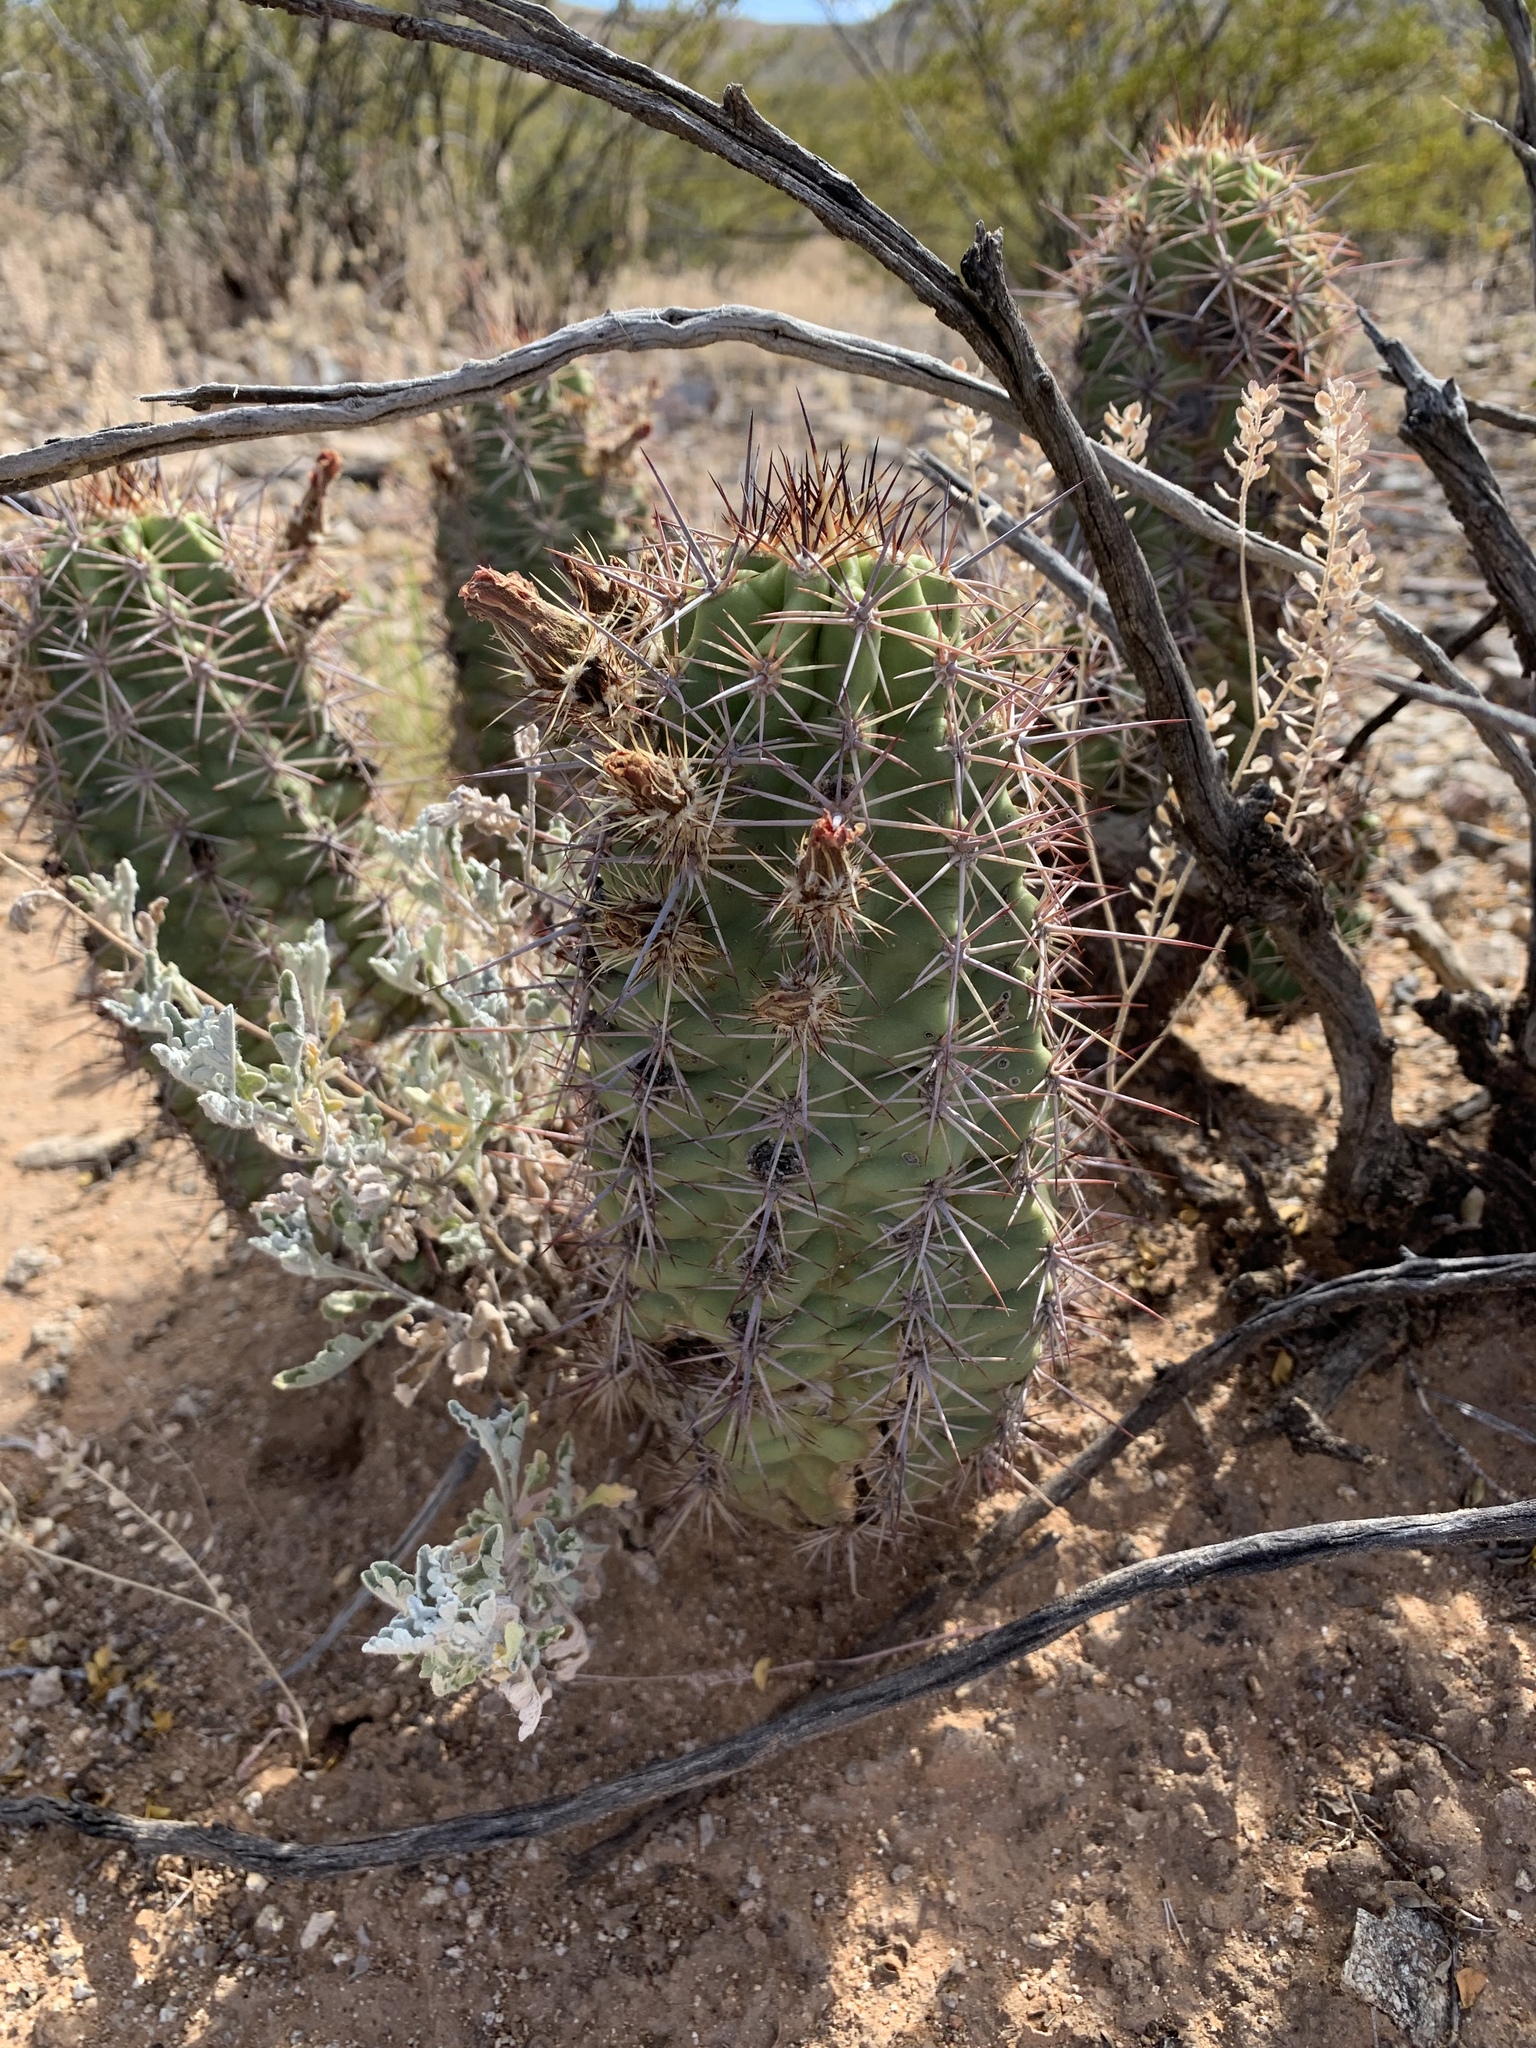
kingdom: Plantae
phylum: Tracheophyta
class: Magnoliopsida
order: Caryophyllales
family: Cactaceae
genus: Echinocereus
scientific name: Echinocereus coccineus
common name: Scarlet hedgehog cactus
